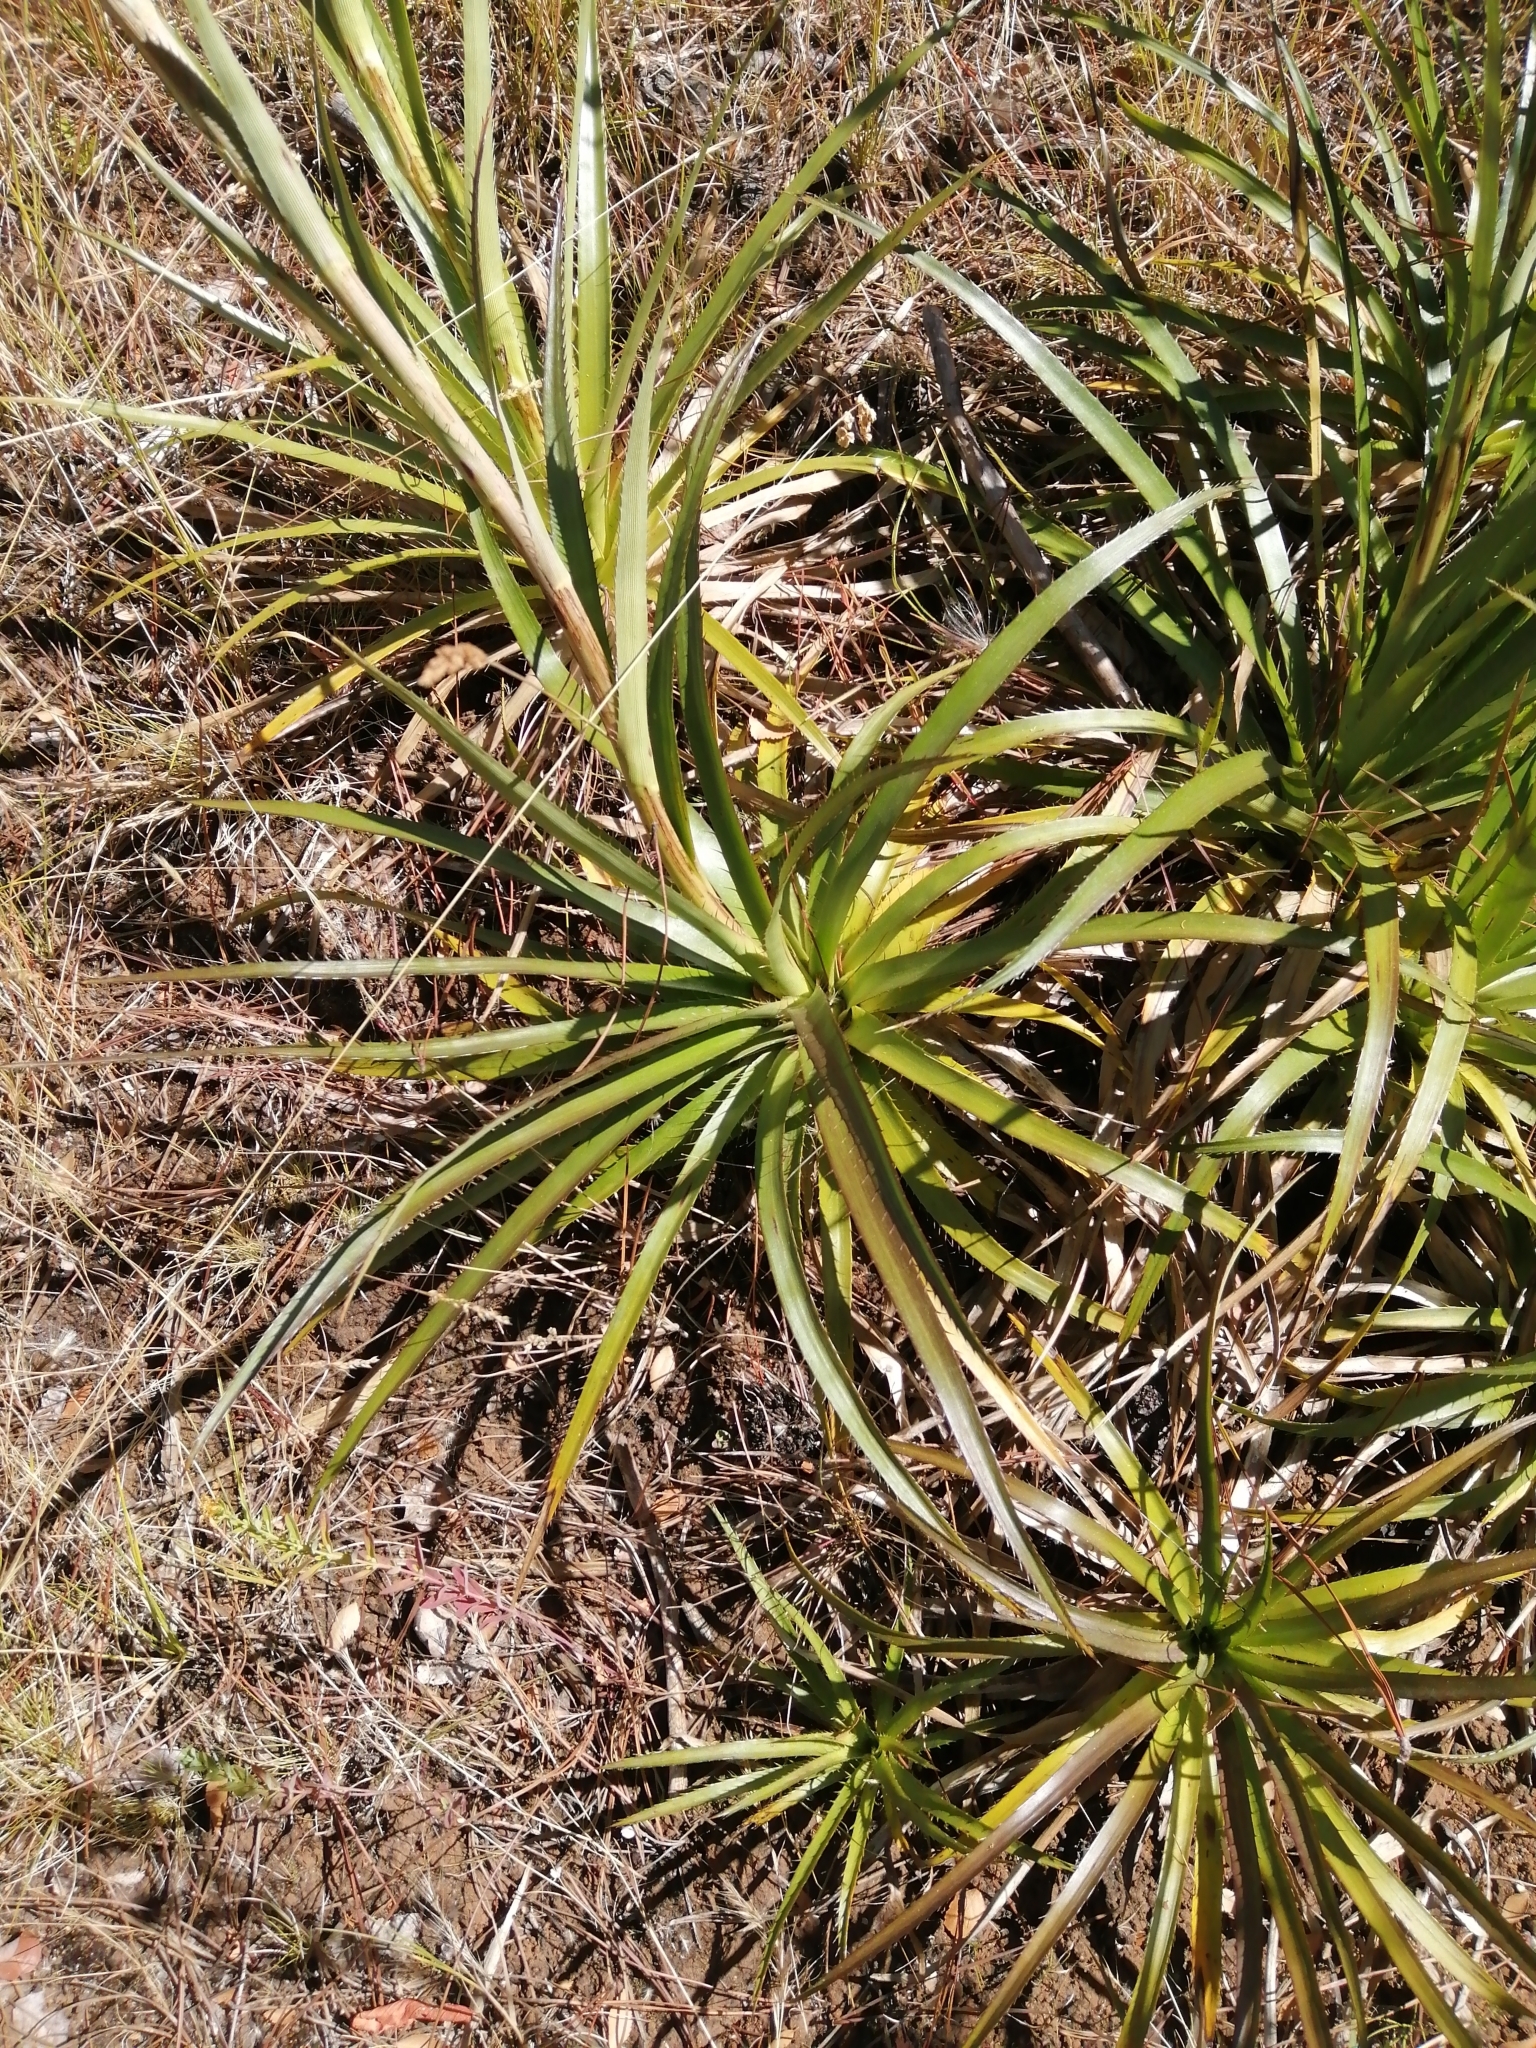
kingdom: Plantae
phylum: Tracheophyta
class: Magnoliopsida
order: Apiales
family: Apiaceae
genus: Eryngium
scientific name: Eryngium humboldtii
